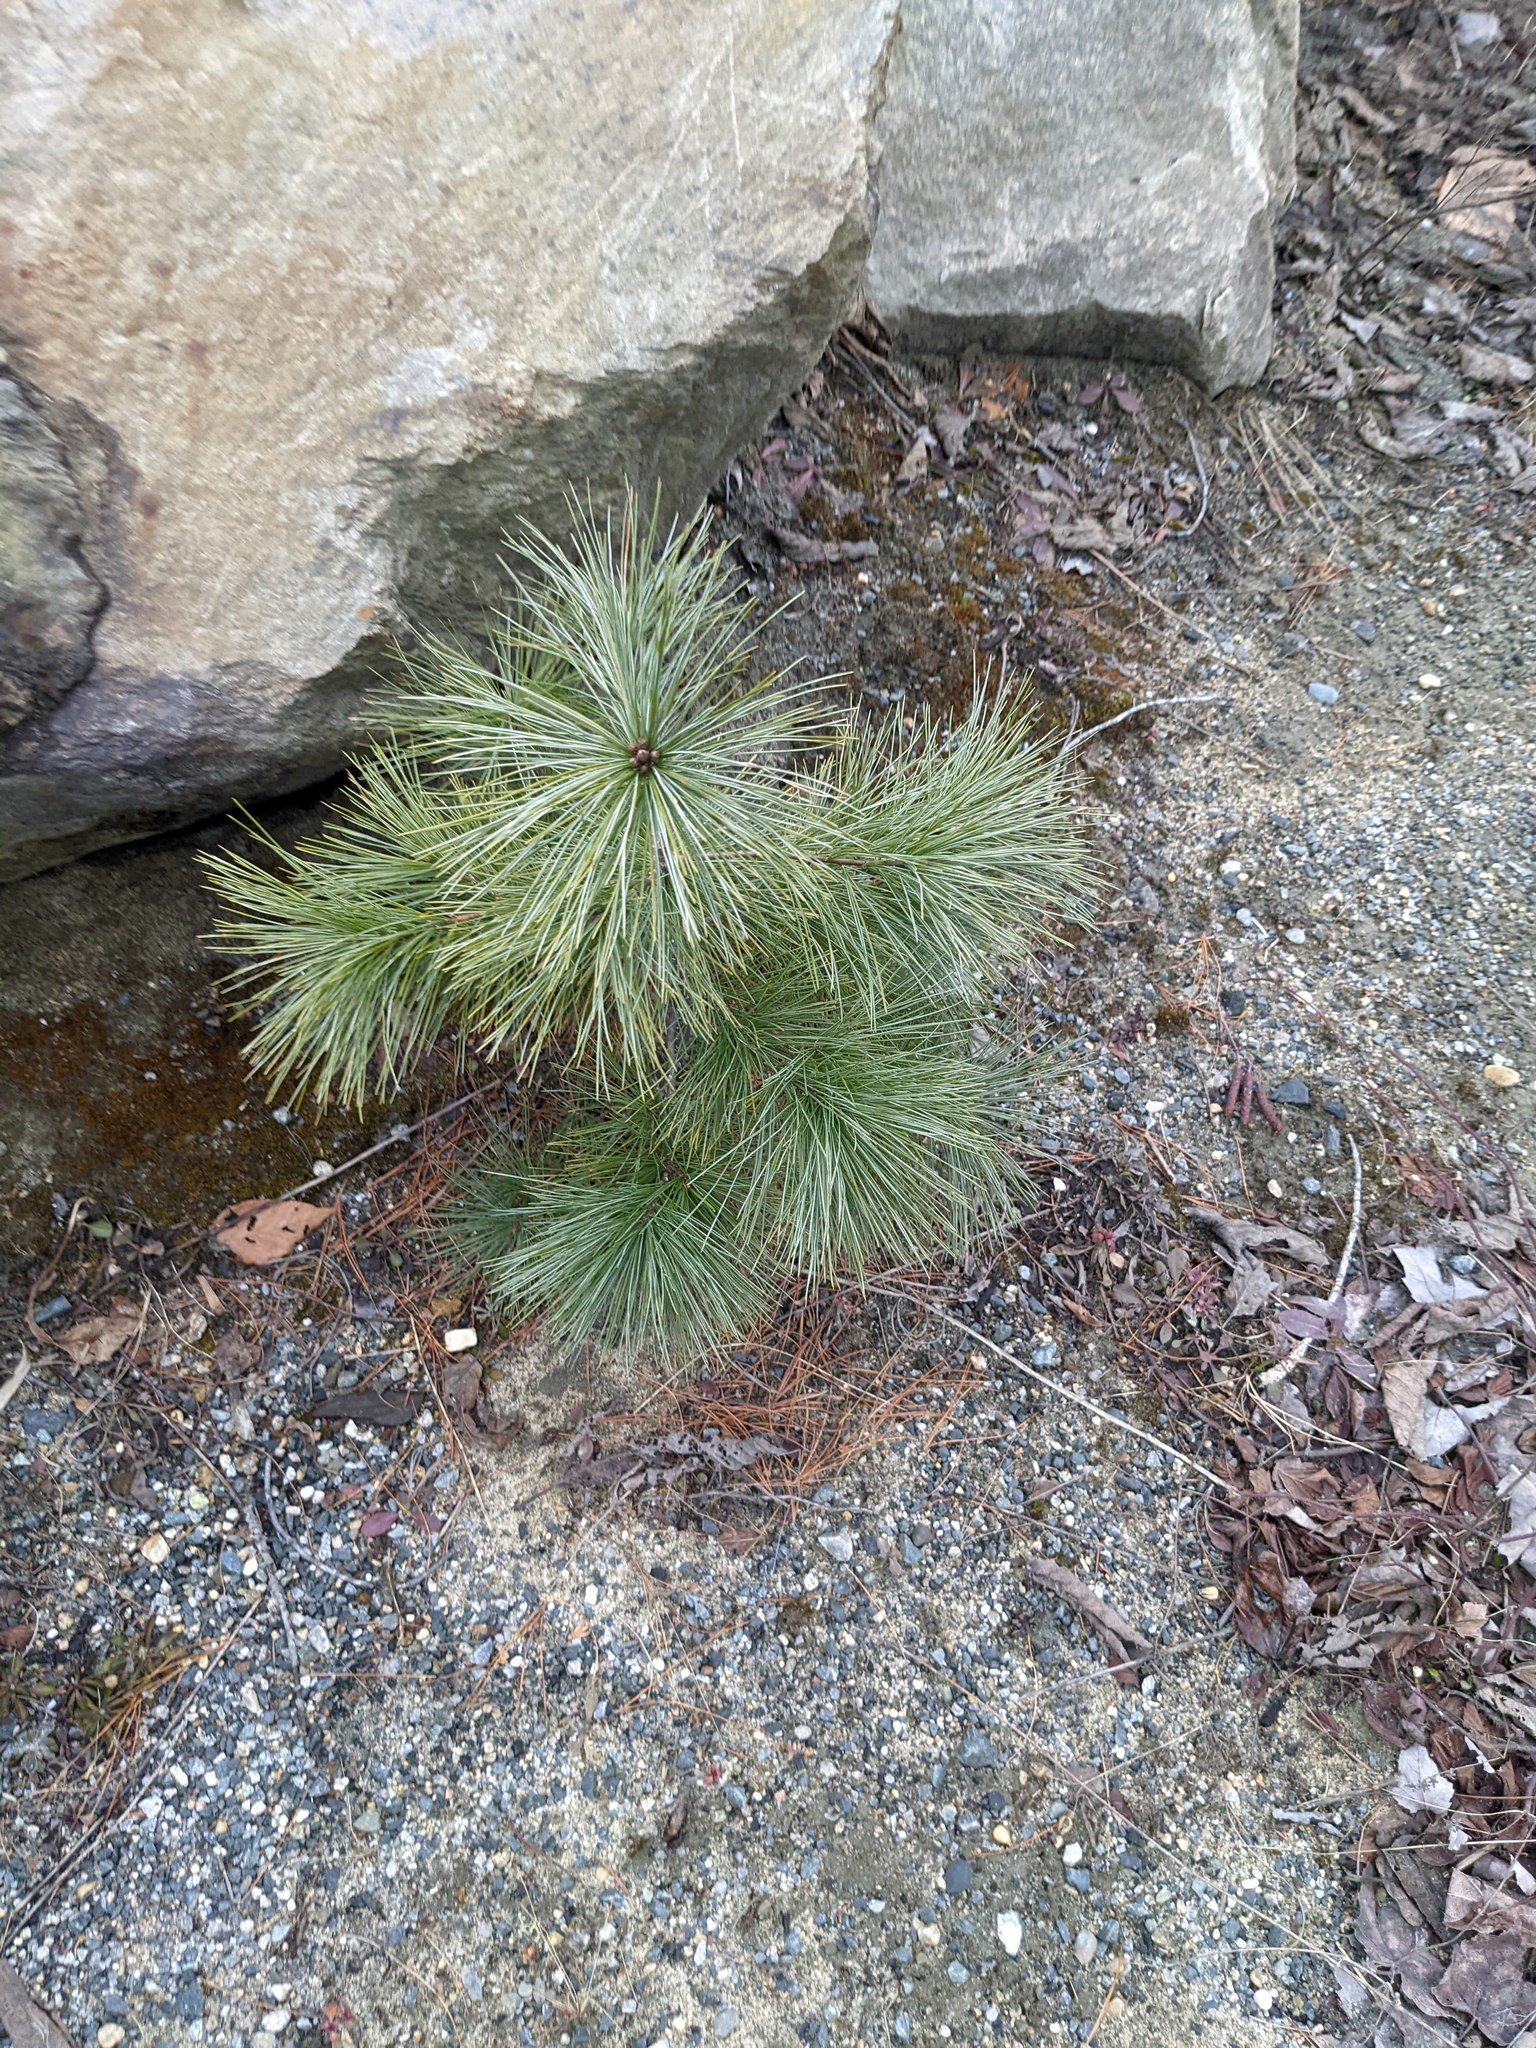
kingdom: Plantae
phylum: Tracheophyta
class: Pinopsida
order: Pinales
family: Pinaceae
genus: Pinus
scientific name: Pinus strobus
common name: Weymouth pine
